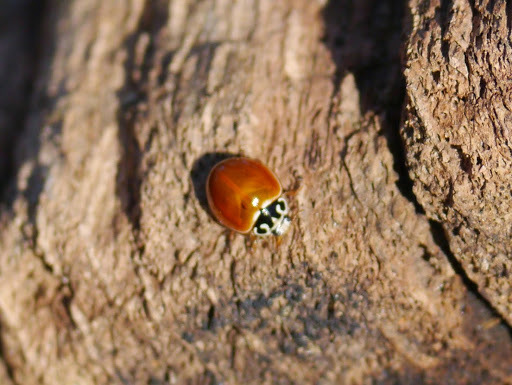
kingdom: Animalia
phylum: Arthropoda
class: Insecta
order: Coleoptera
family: Coccinellidae
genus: Cycloneda
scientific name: Cycloneda munda
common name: Polished lady beetle
